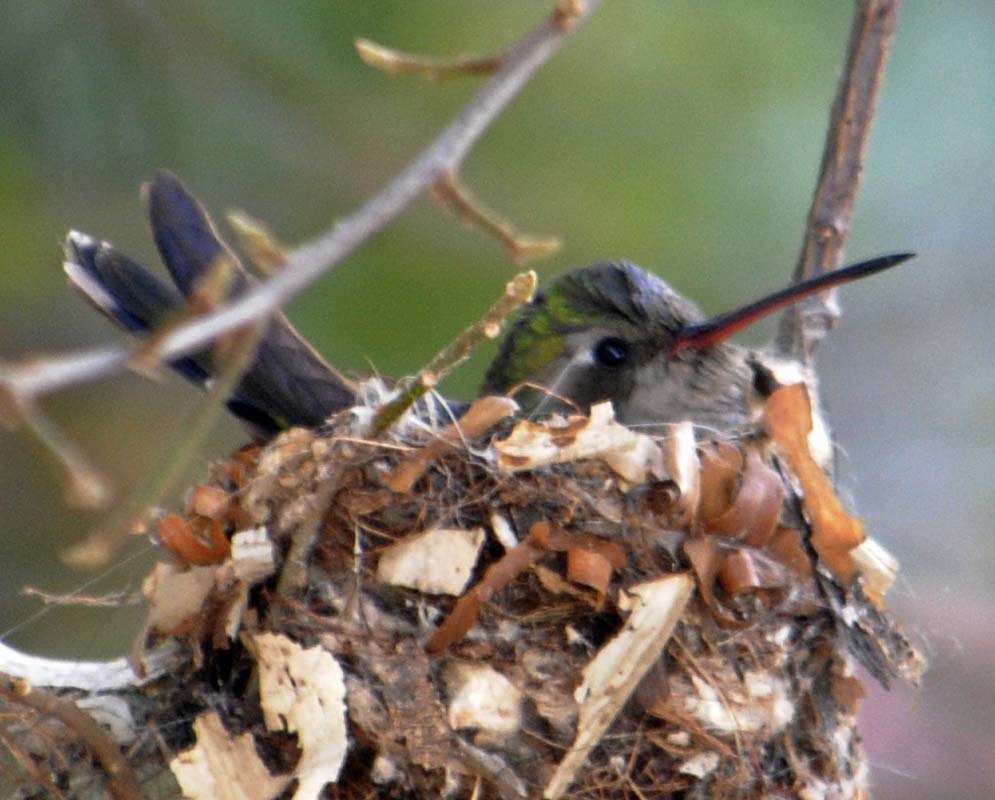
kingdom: Animalia
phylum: Chordata
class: Aves
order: Apodiformes
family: Trochilidae
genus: Cynanthus
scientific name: Cynanthus latirostris
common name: Broad-billed hummingbird
